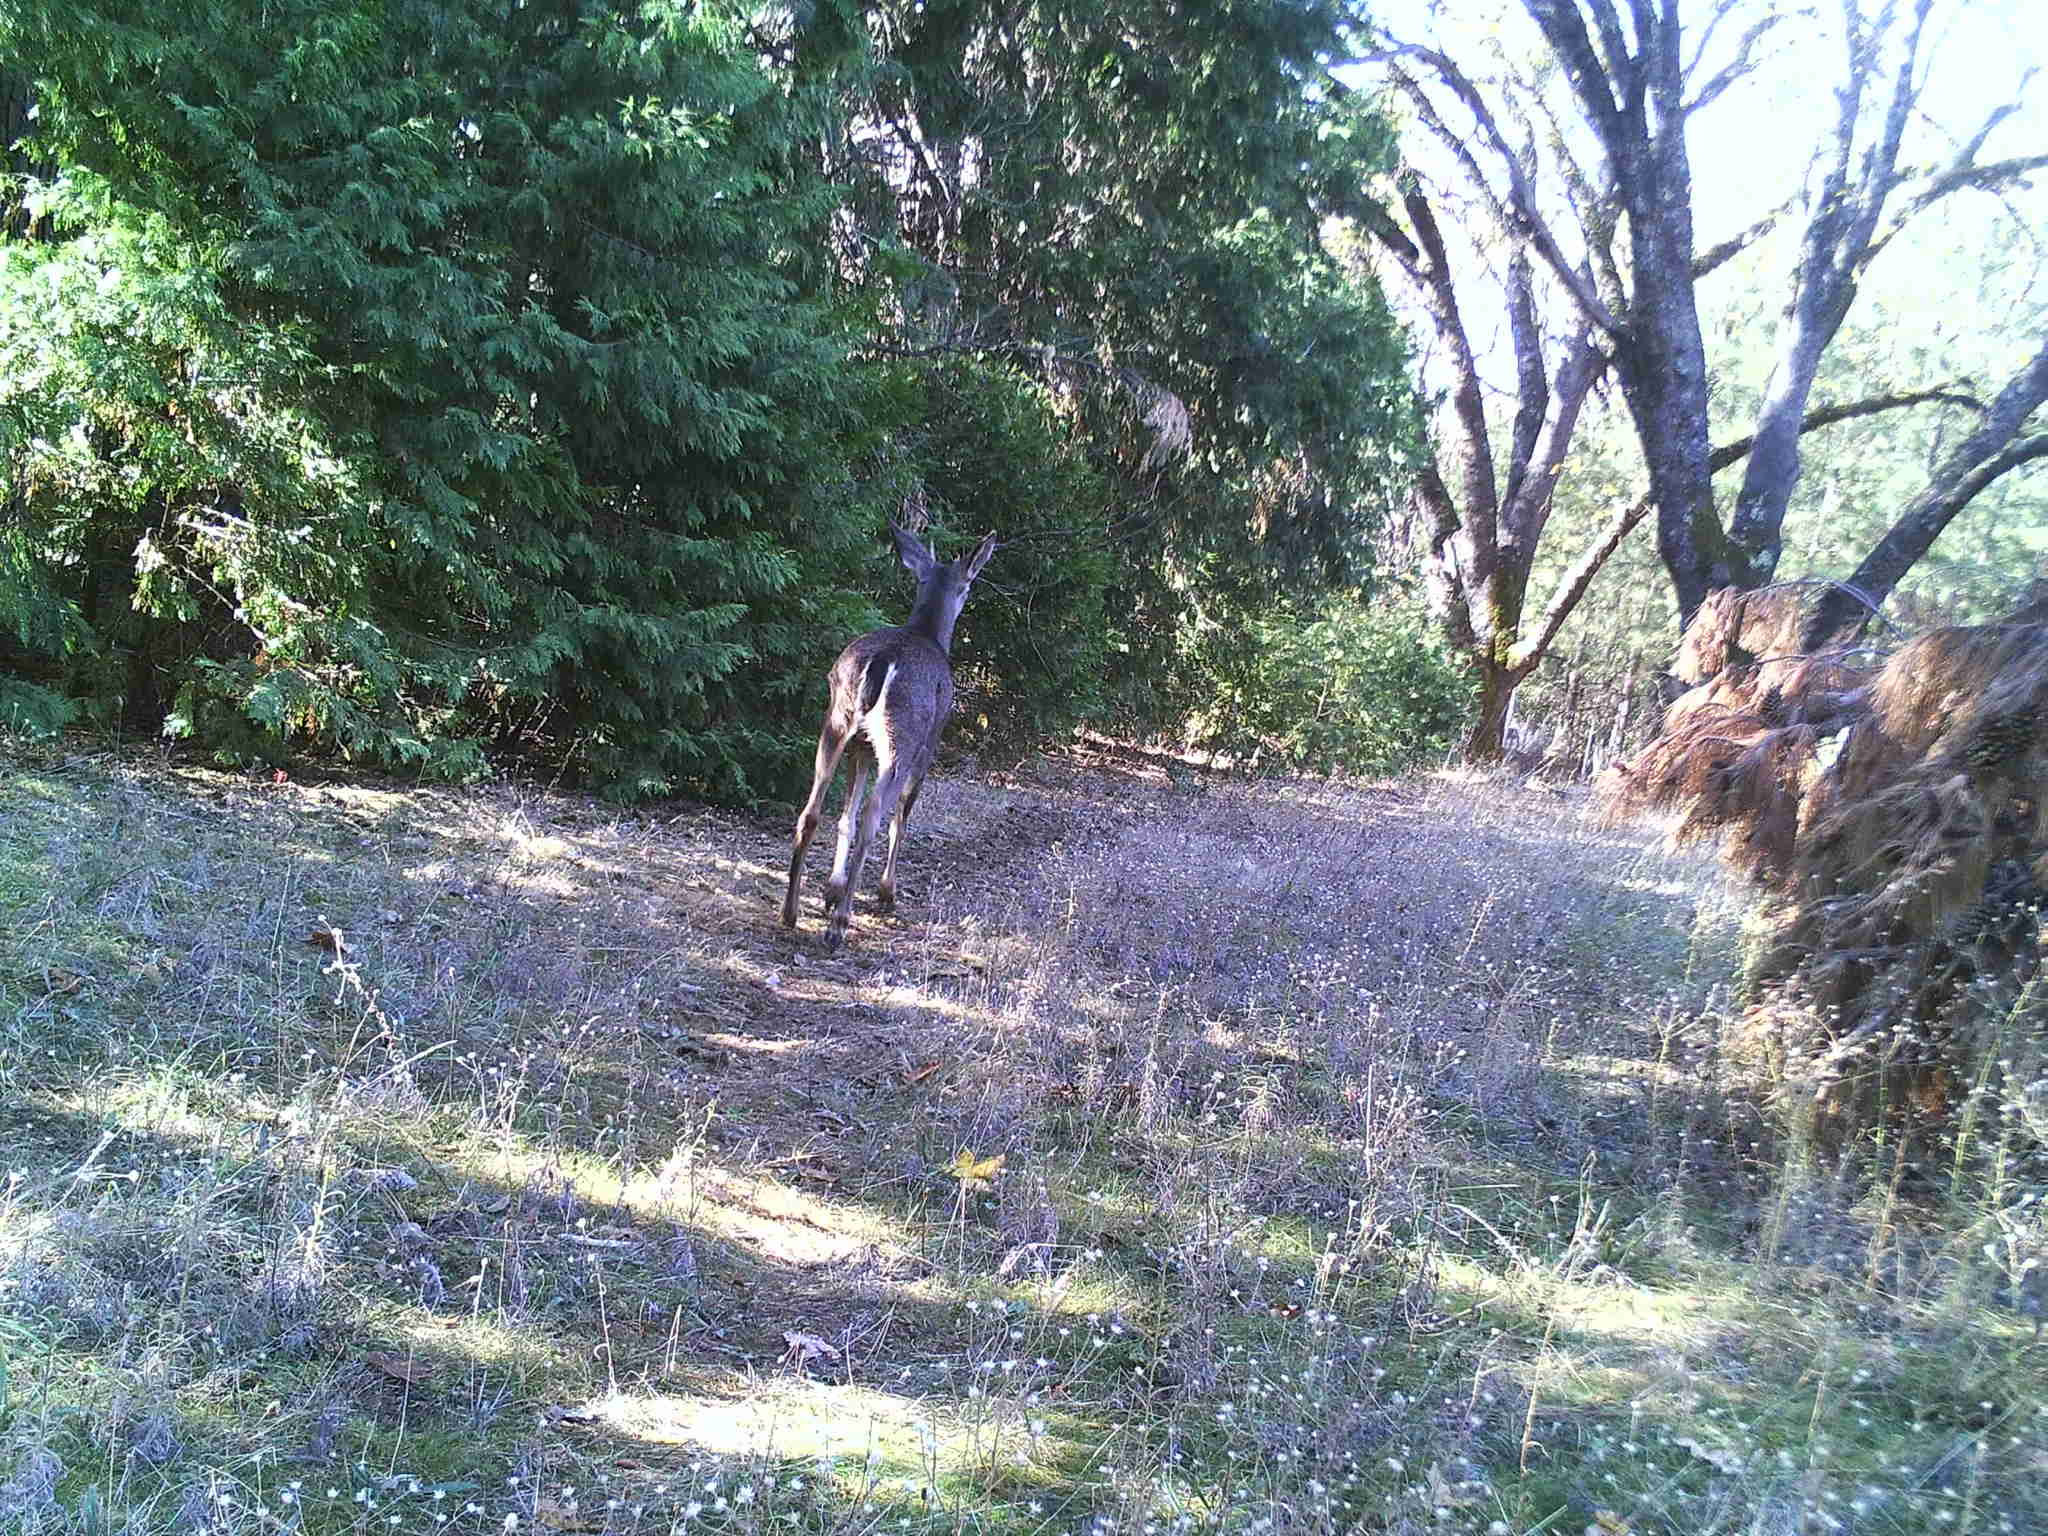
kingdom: Animalia
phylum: Chordata
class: Mammalia
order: Artiodactyla
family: Cervidae
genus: Odocoileus
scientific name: Odocoileus hemionus
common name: Mule deer
